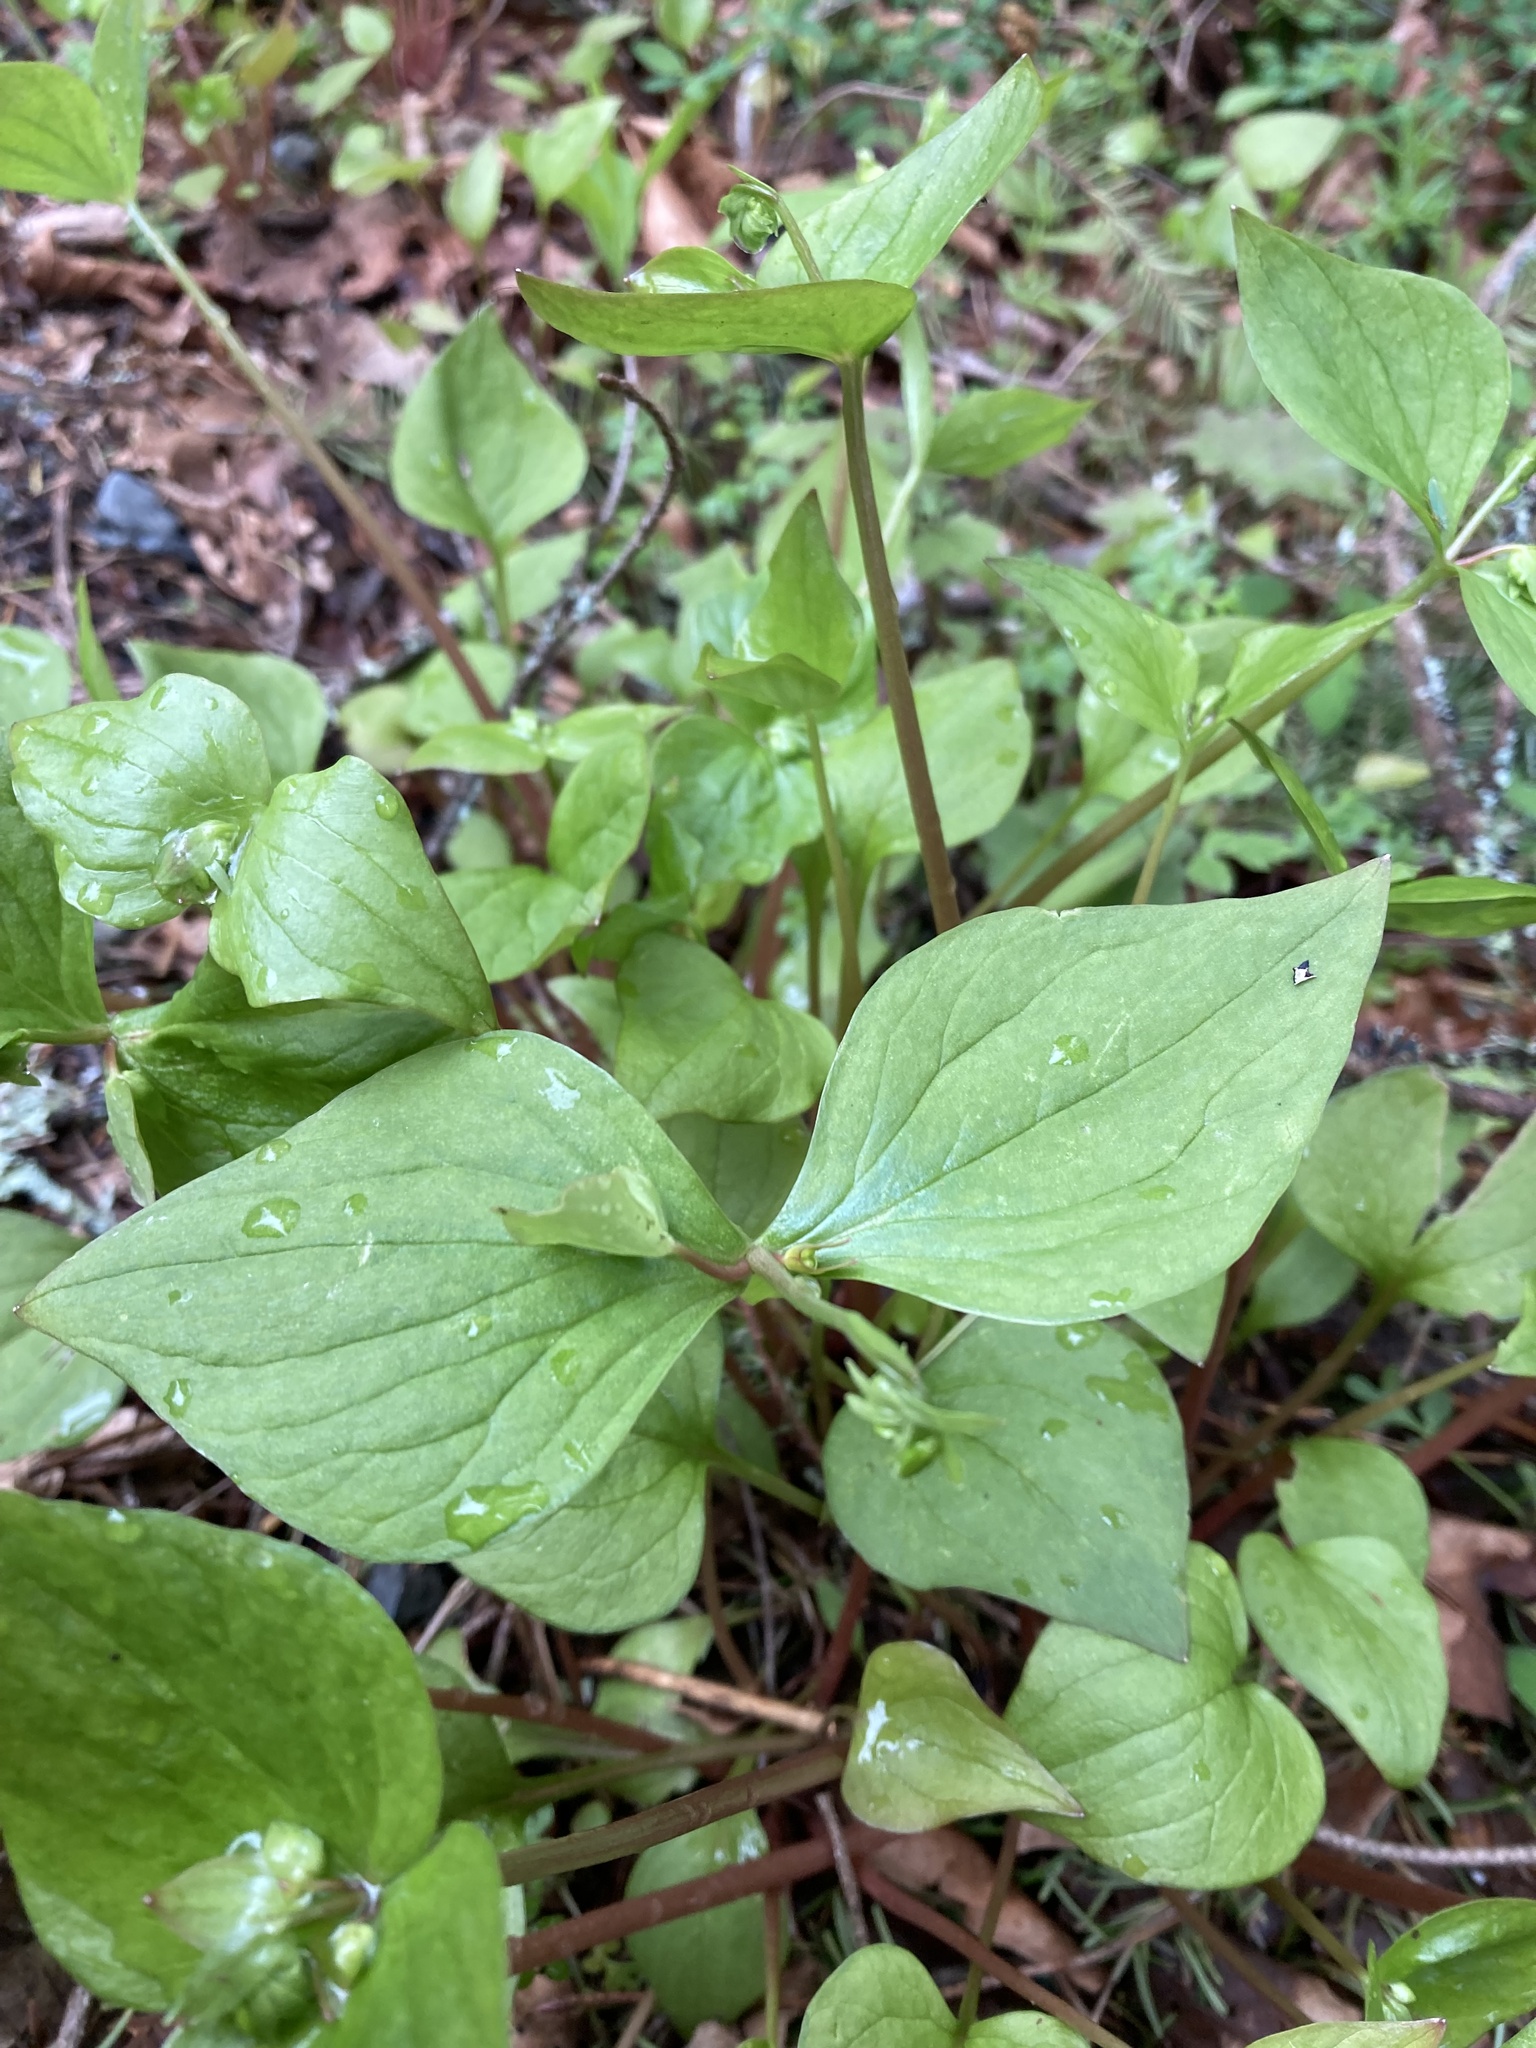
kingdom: Plantae
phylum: Tracheophyta
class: Magnoliopsida
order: Caryophyllales
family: Montiaceae
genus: Claytonia
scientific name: Claytonia sibirica
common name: Pink purslane
